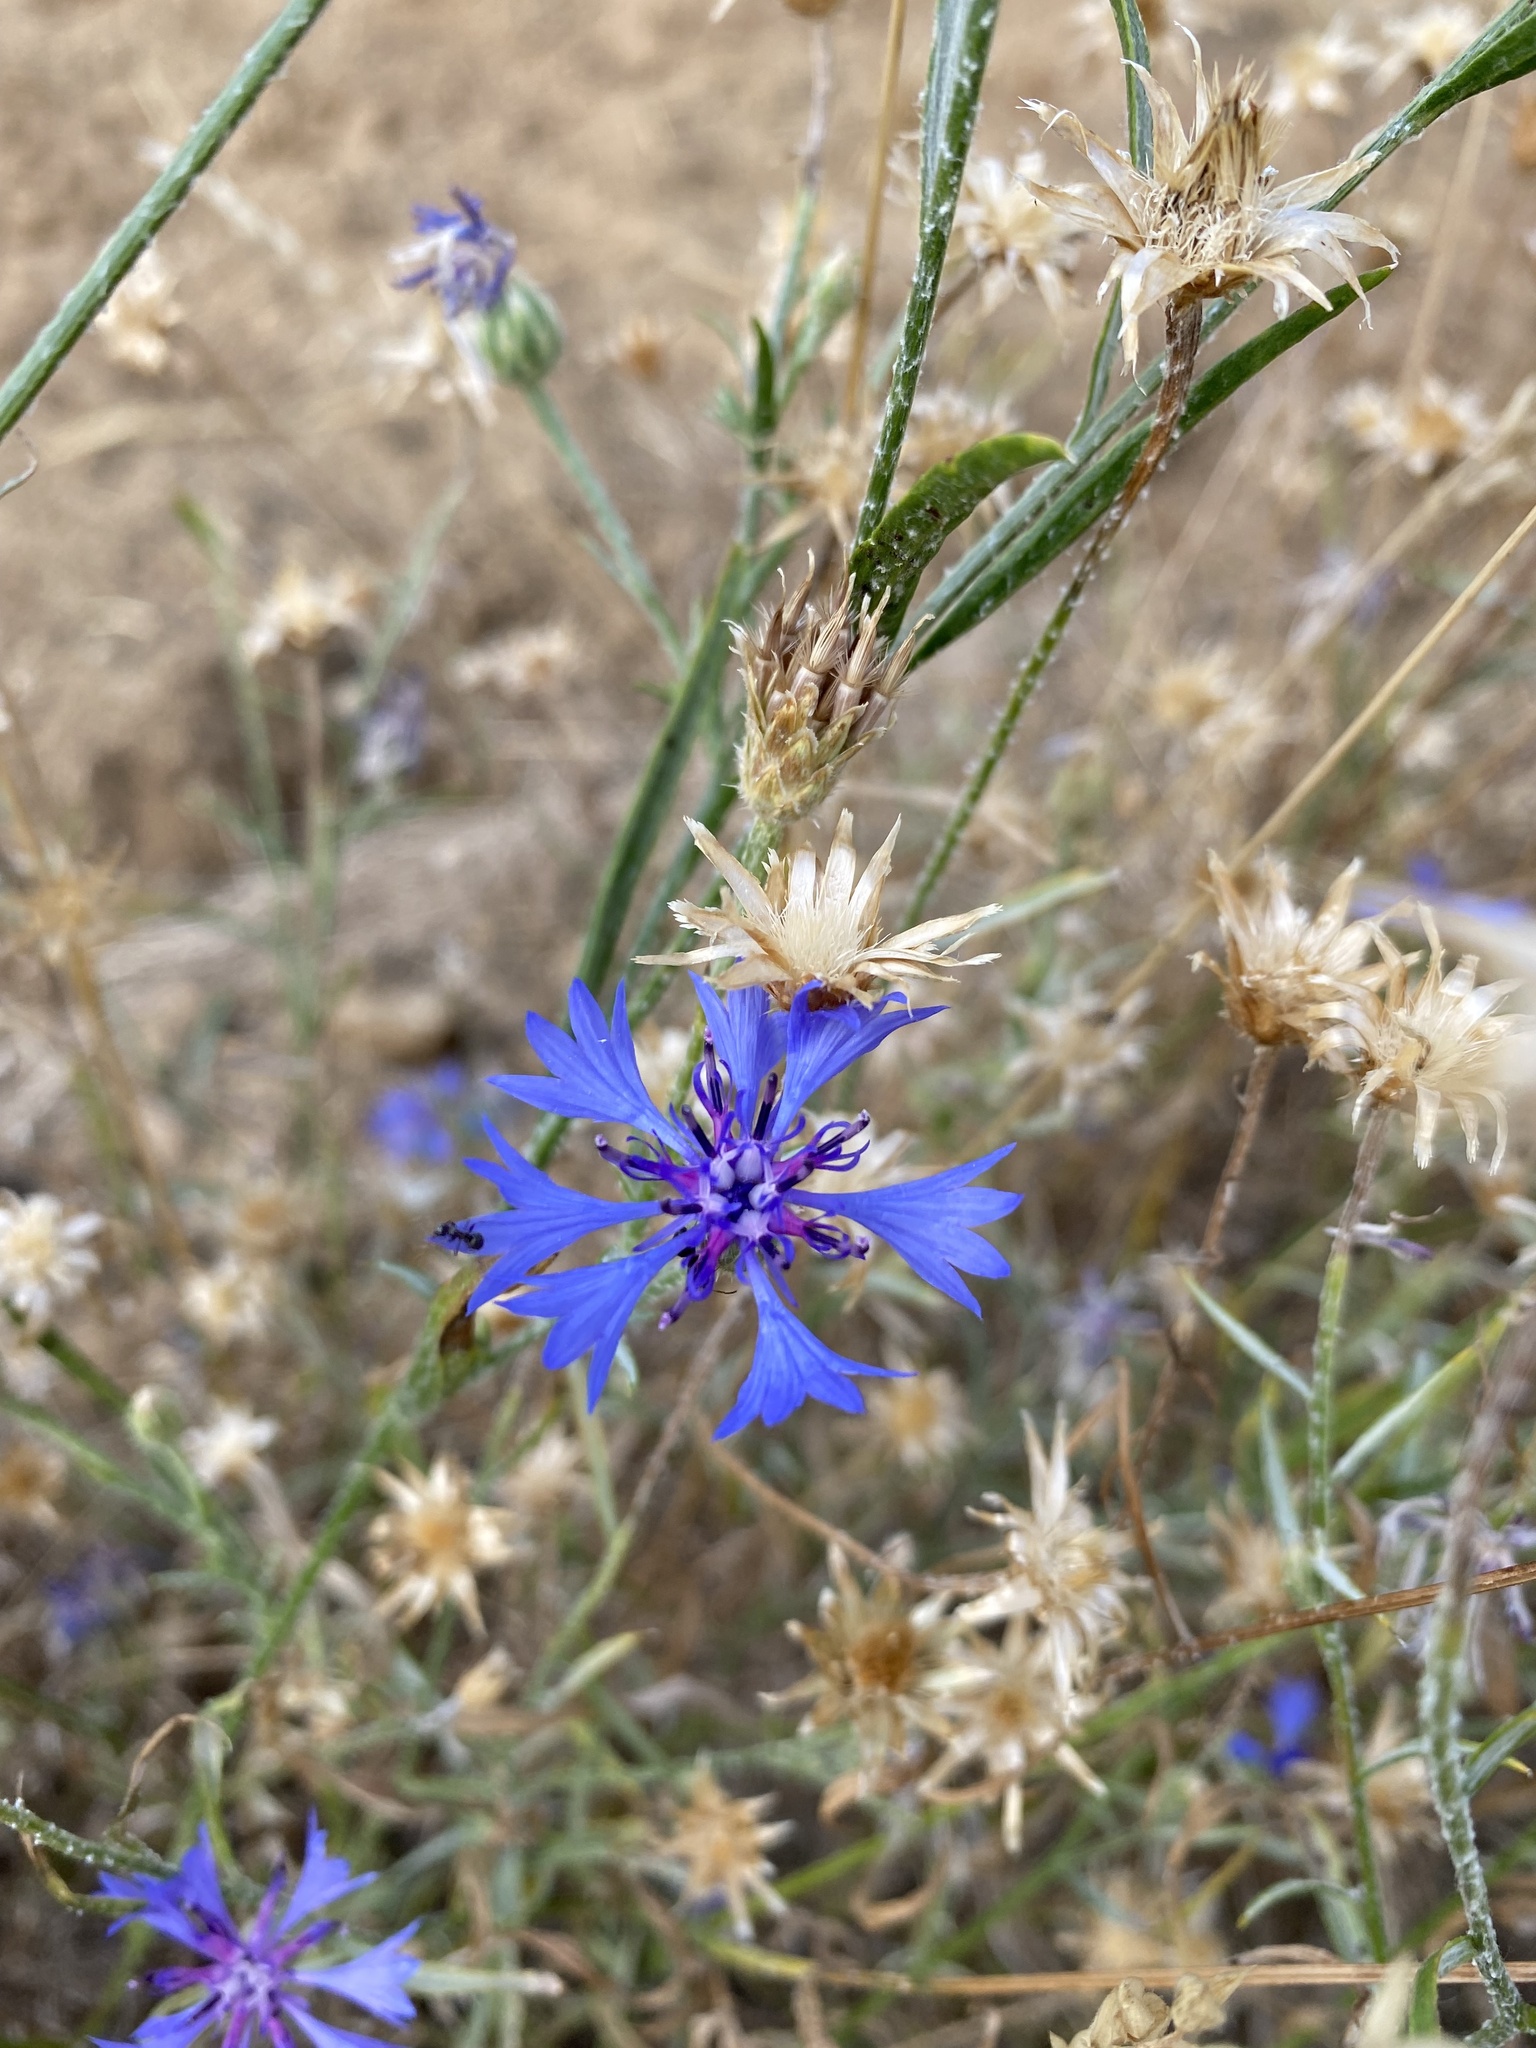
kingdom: Plantae
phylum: Tracheophyta
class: Magnoliopsida
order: Asterales
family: Asteraceae
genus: Centaurea
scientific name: Centaurea cyanus
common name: Cornflower
